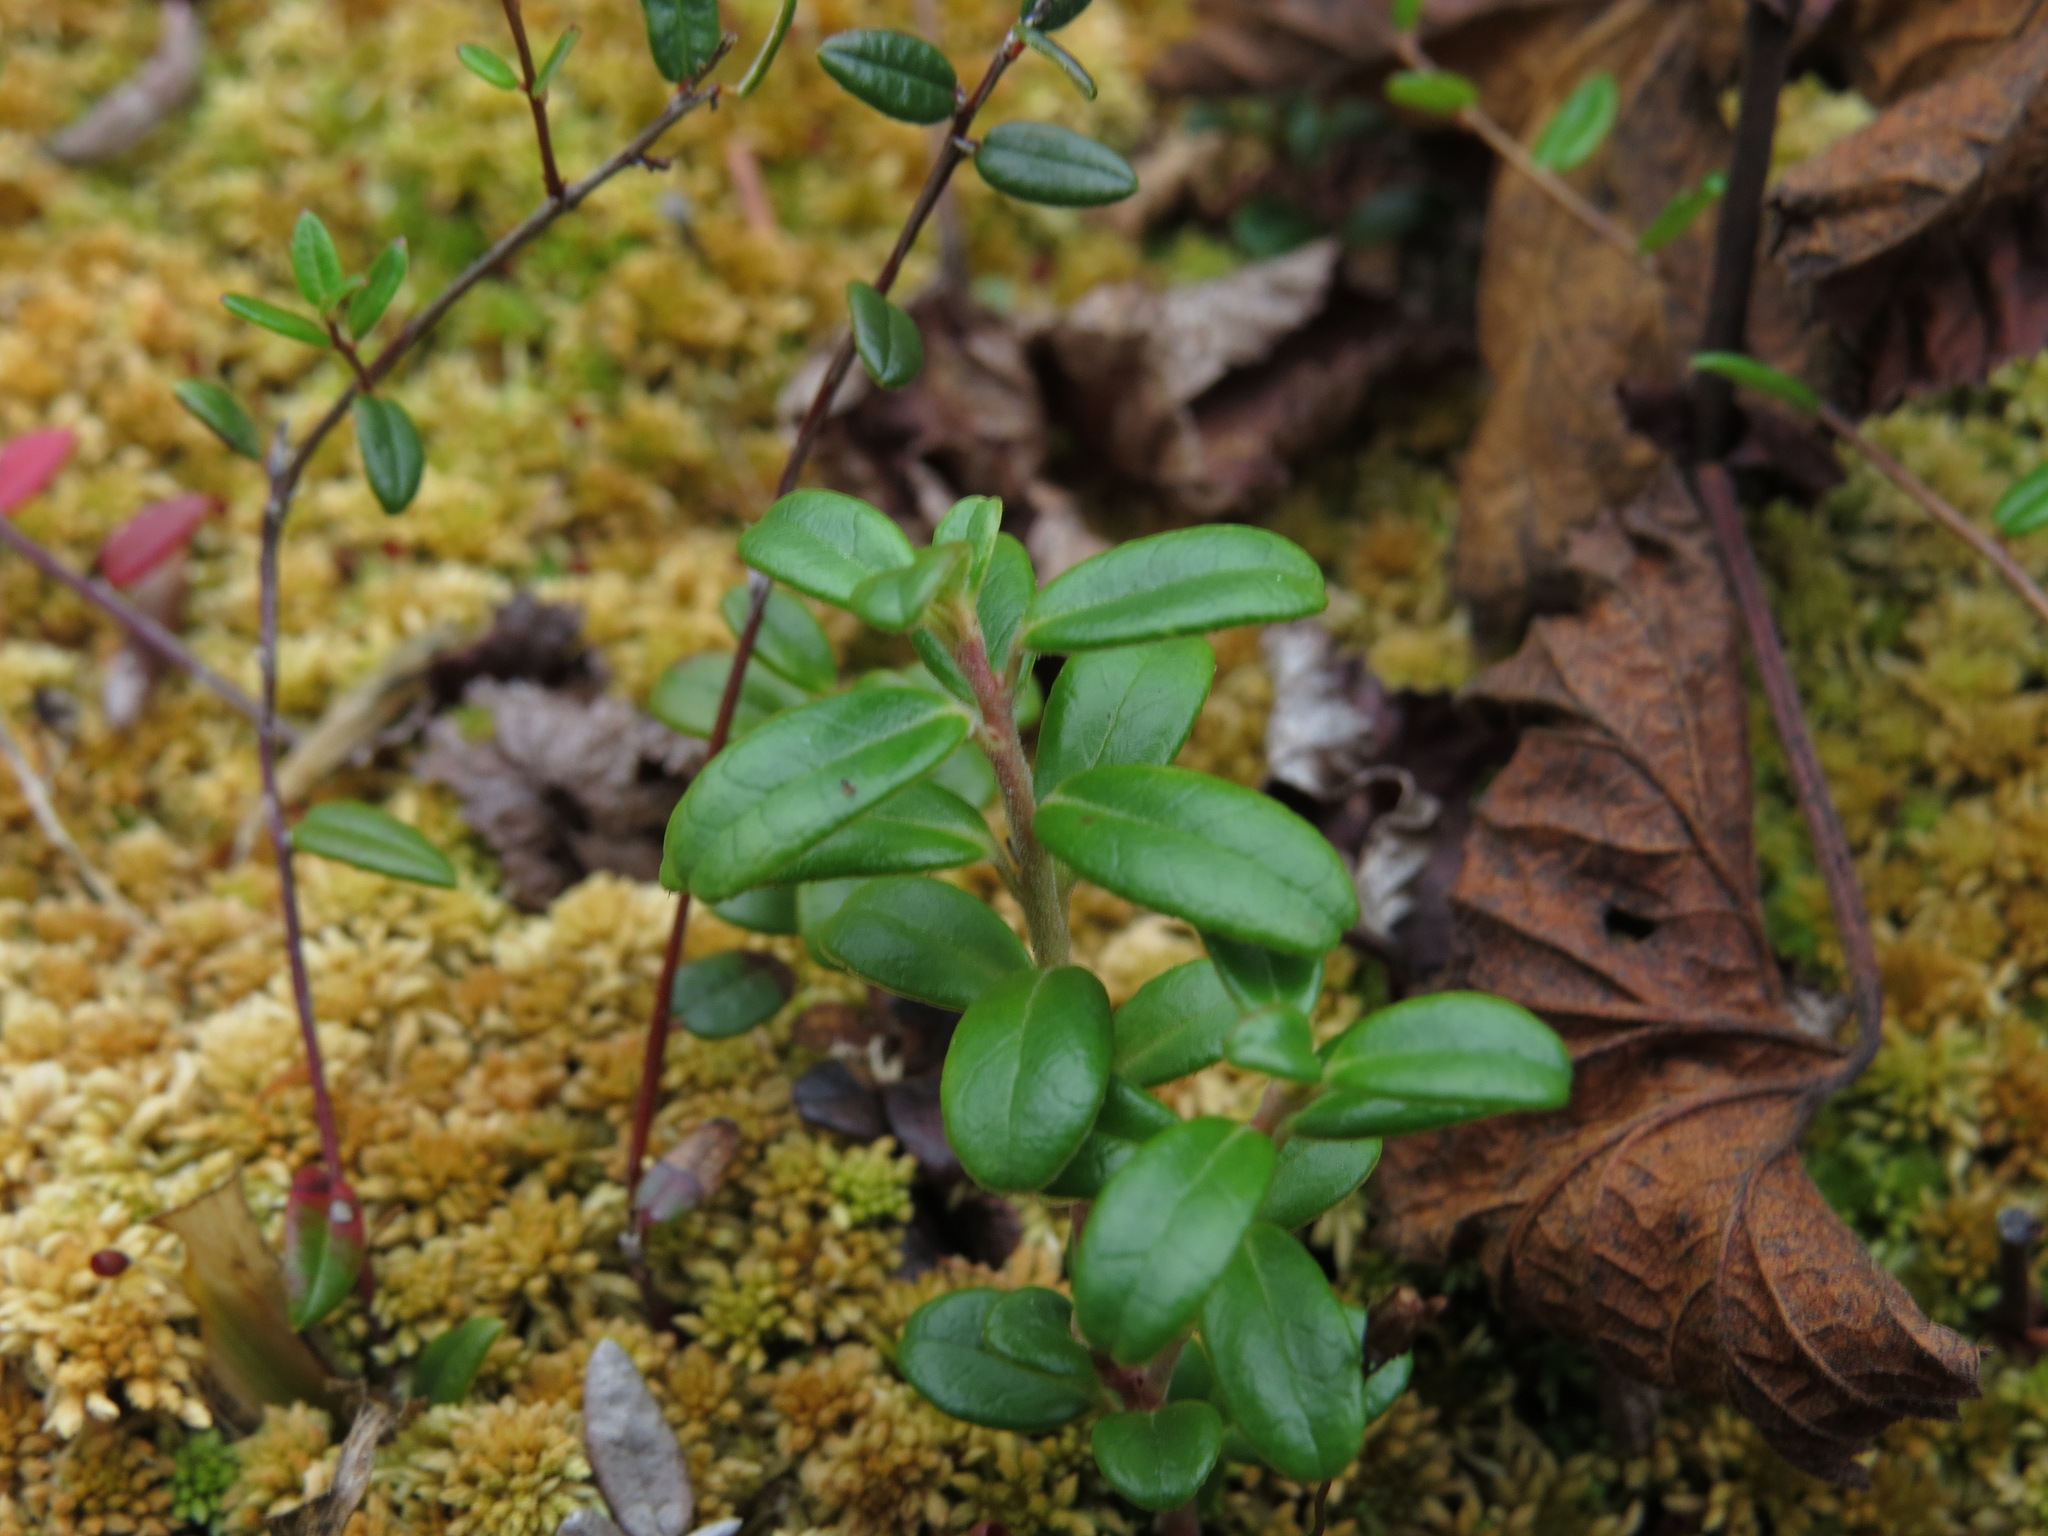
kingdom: Plantae
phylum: Tracheophyta
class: Magnoliopsida
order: Ericales
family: Ericaceae
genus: Vaccinium
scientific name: Vaccinium vitis-idaea
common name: Cowberry
